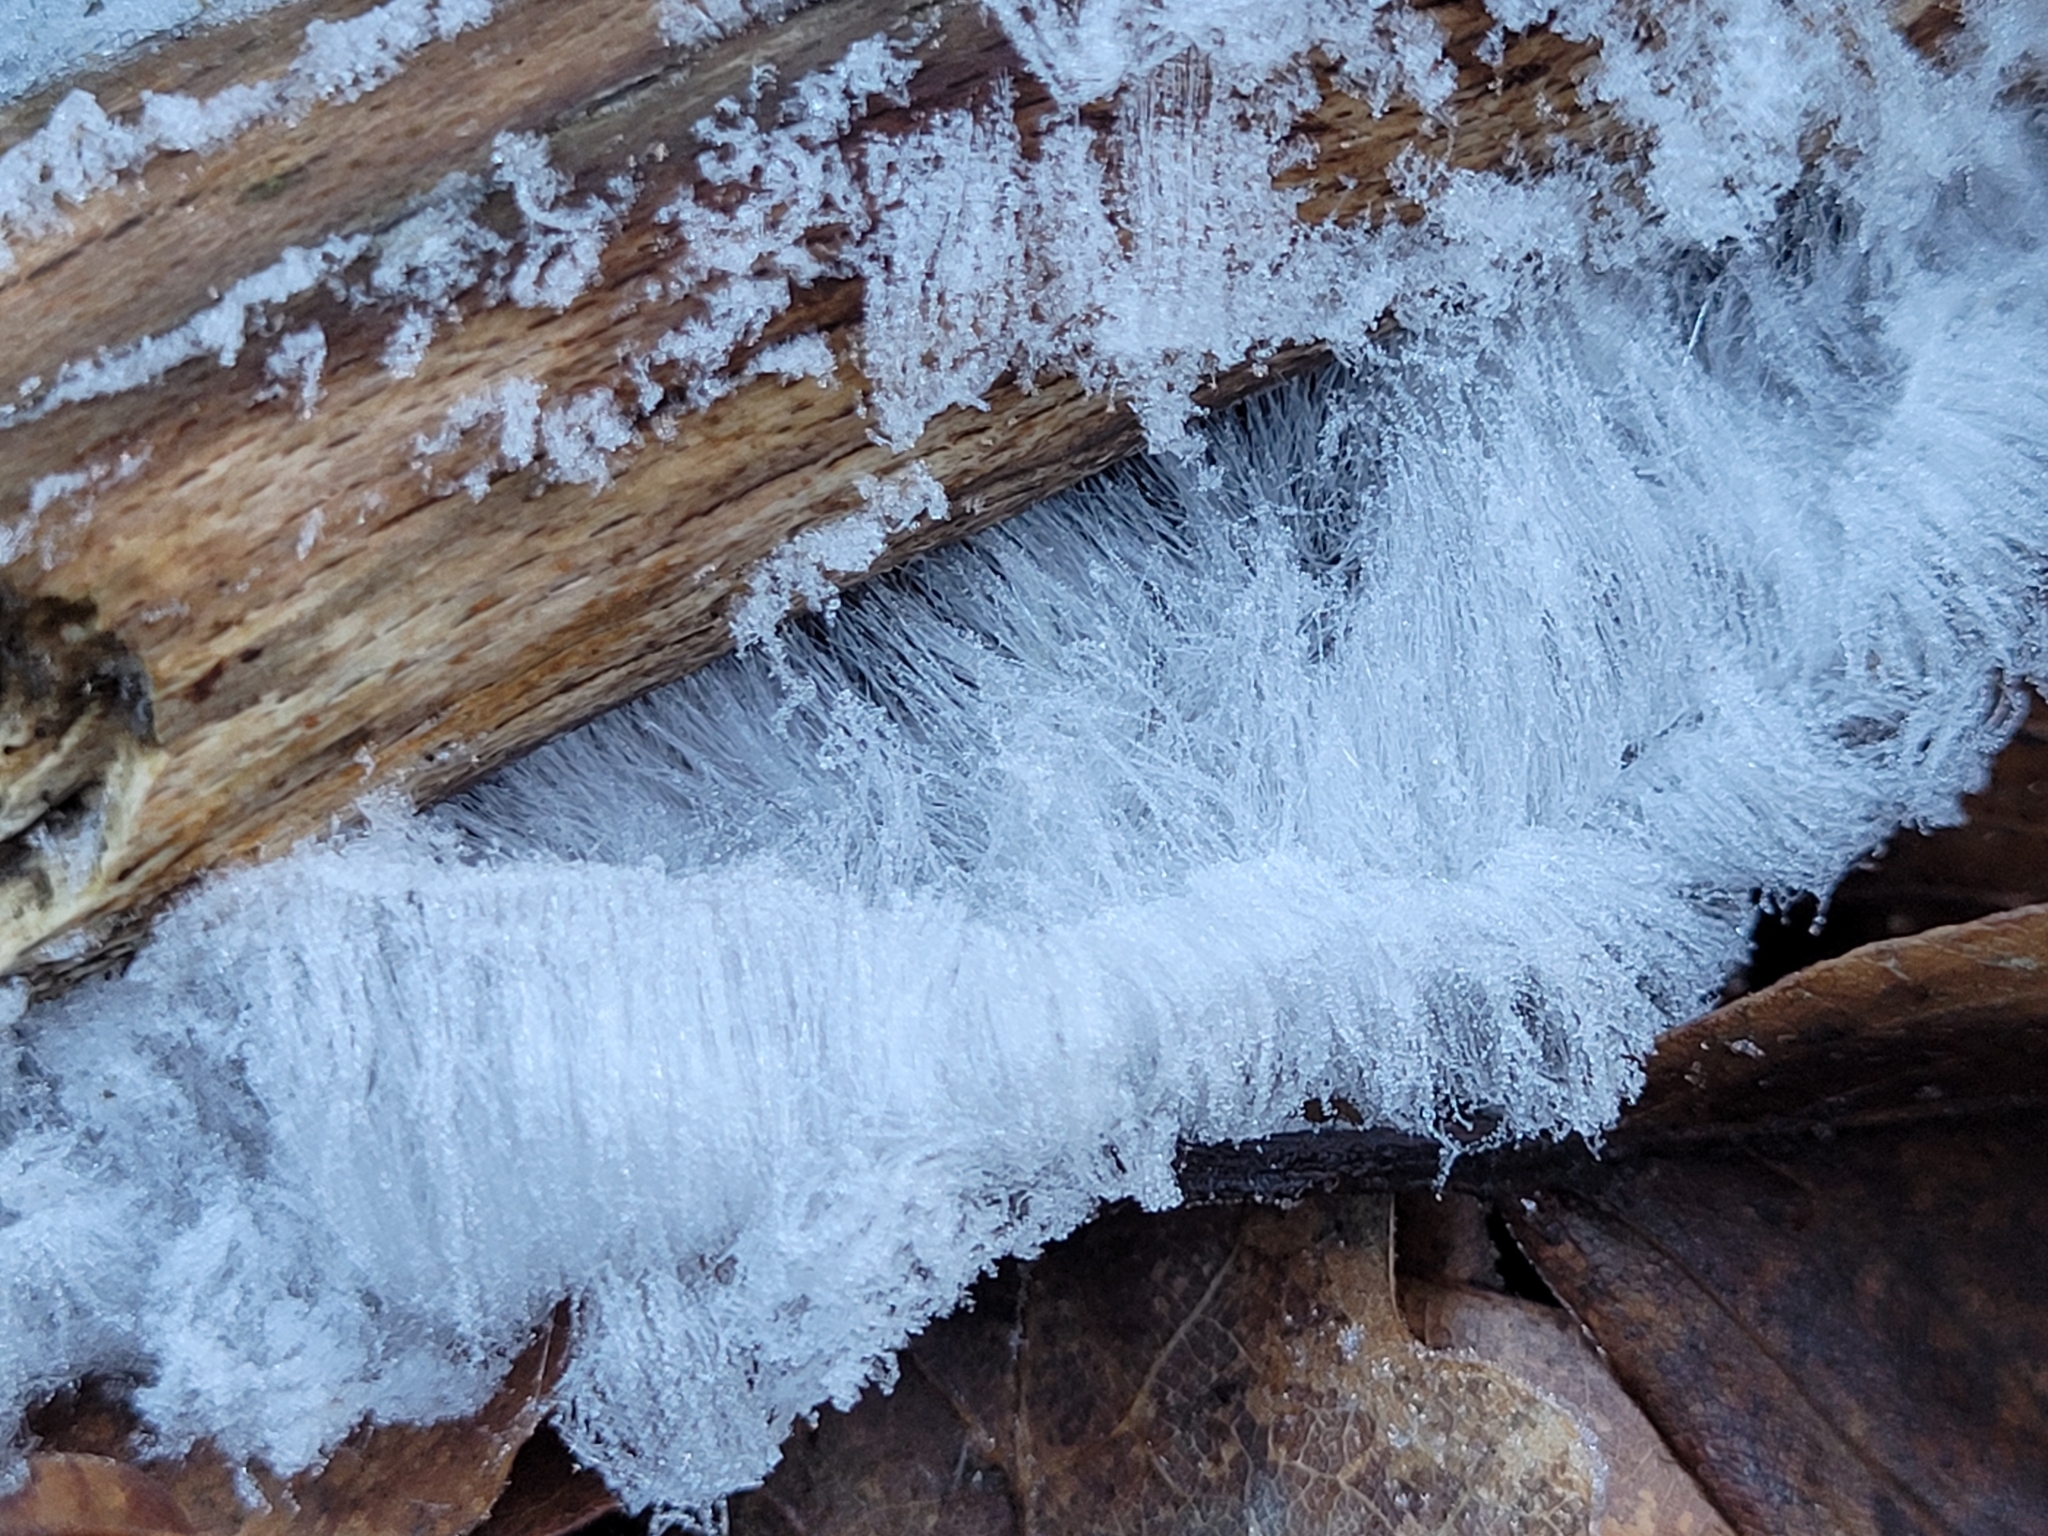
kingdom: Fungi
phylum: Basidiomycota
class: Agaricomycetes
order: Auriculariales
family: Auriculariaceae
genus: Exidiopsis
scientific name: Exidiopsis effusa
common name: Hair ice crust
